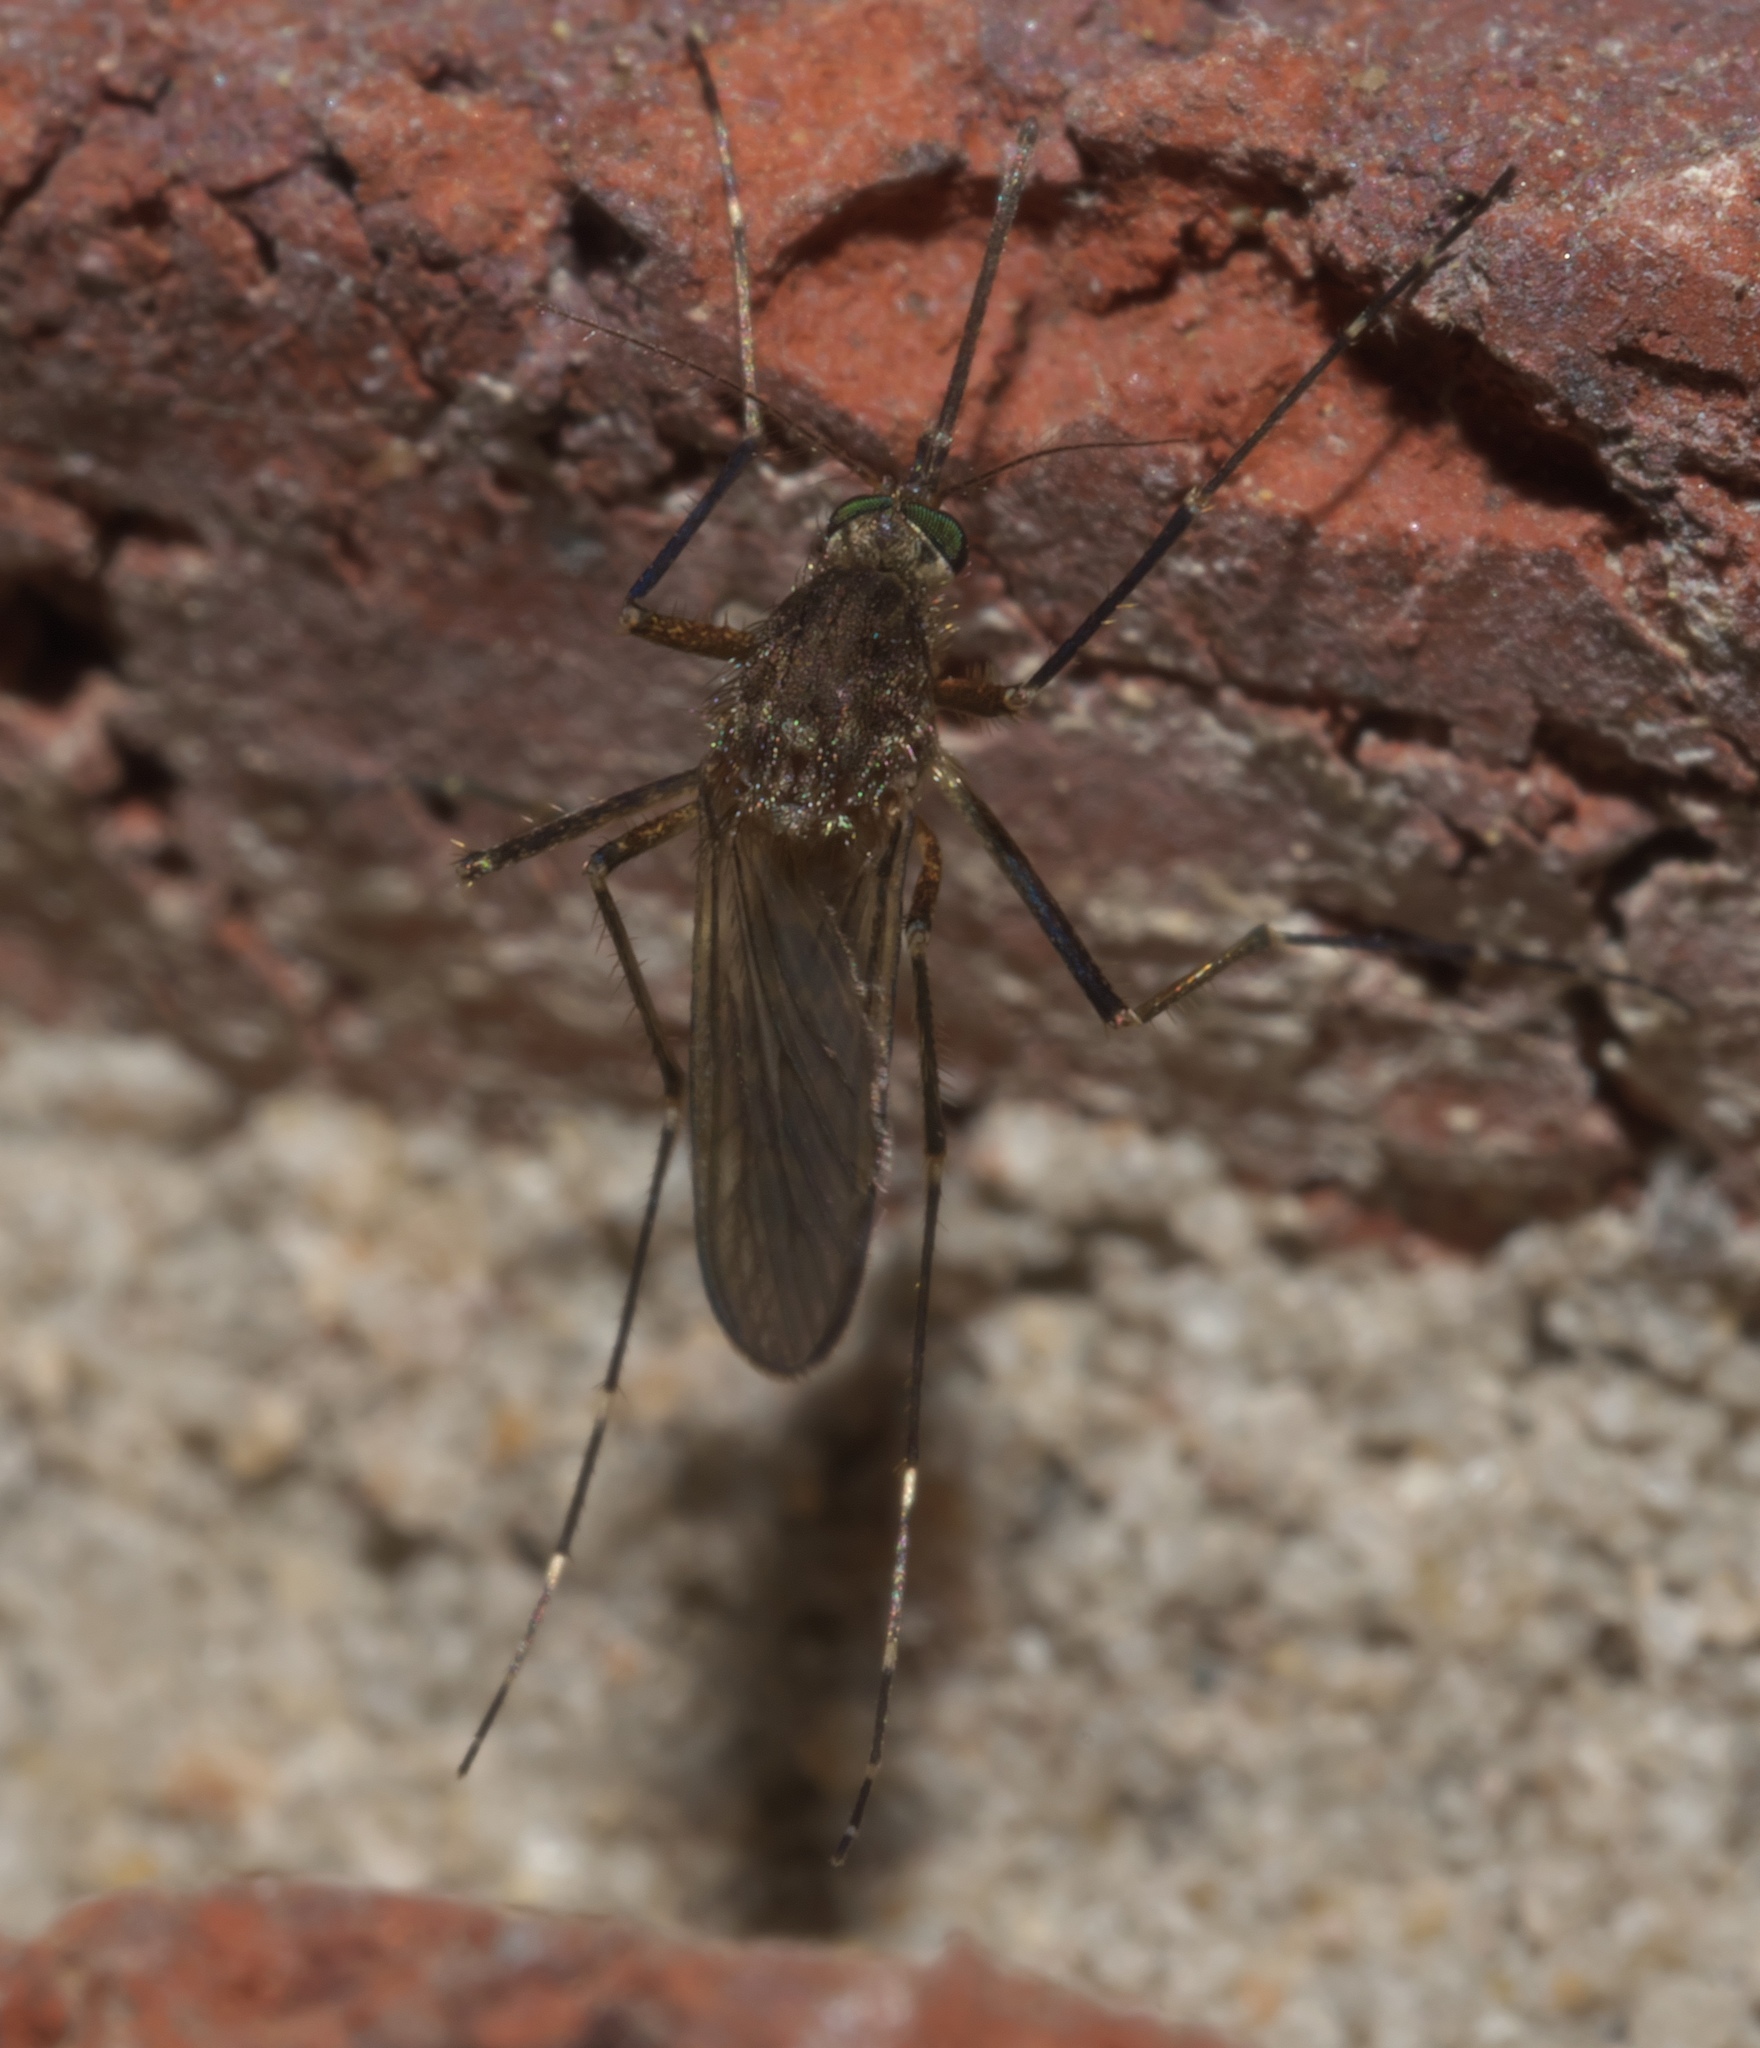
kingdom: Animalia
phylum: Arthropoda
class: Insecta
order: Diptera
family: Culicidae
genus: Aedes
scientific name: Aedes vexans
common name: Inland floodwater mosquito
